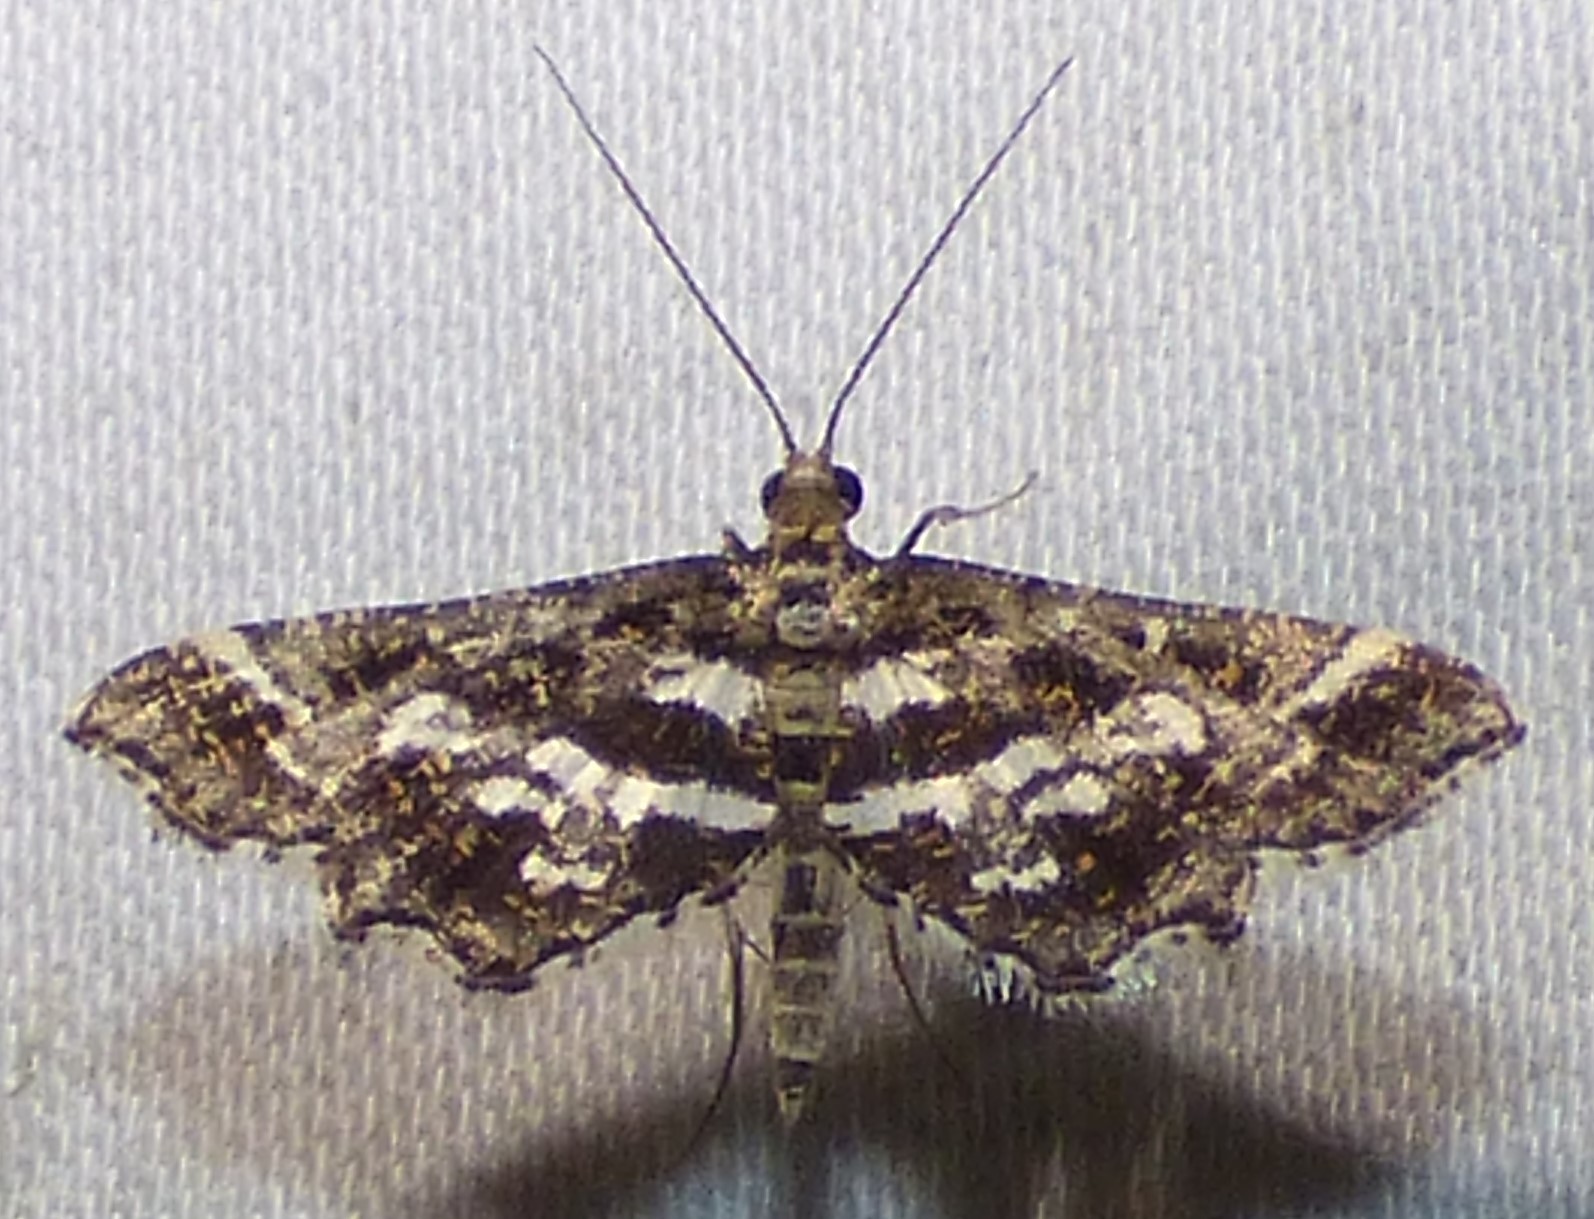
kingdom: Animalia
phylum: Arthropoda
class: Insecta
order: Lepidoptera
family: Crambidae
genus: Diasemiopsis
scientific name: Diasemiopsis ramburialis
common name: Vagrant china-mark
